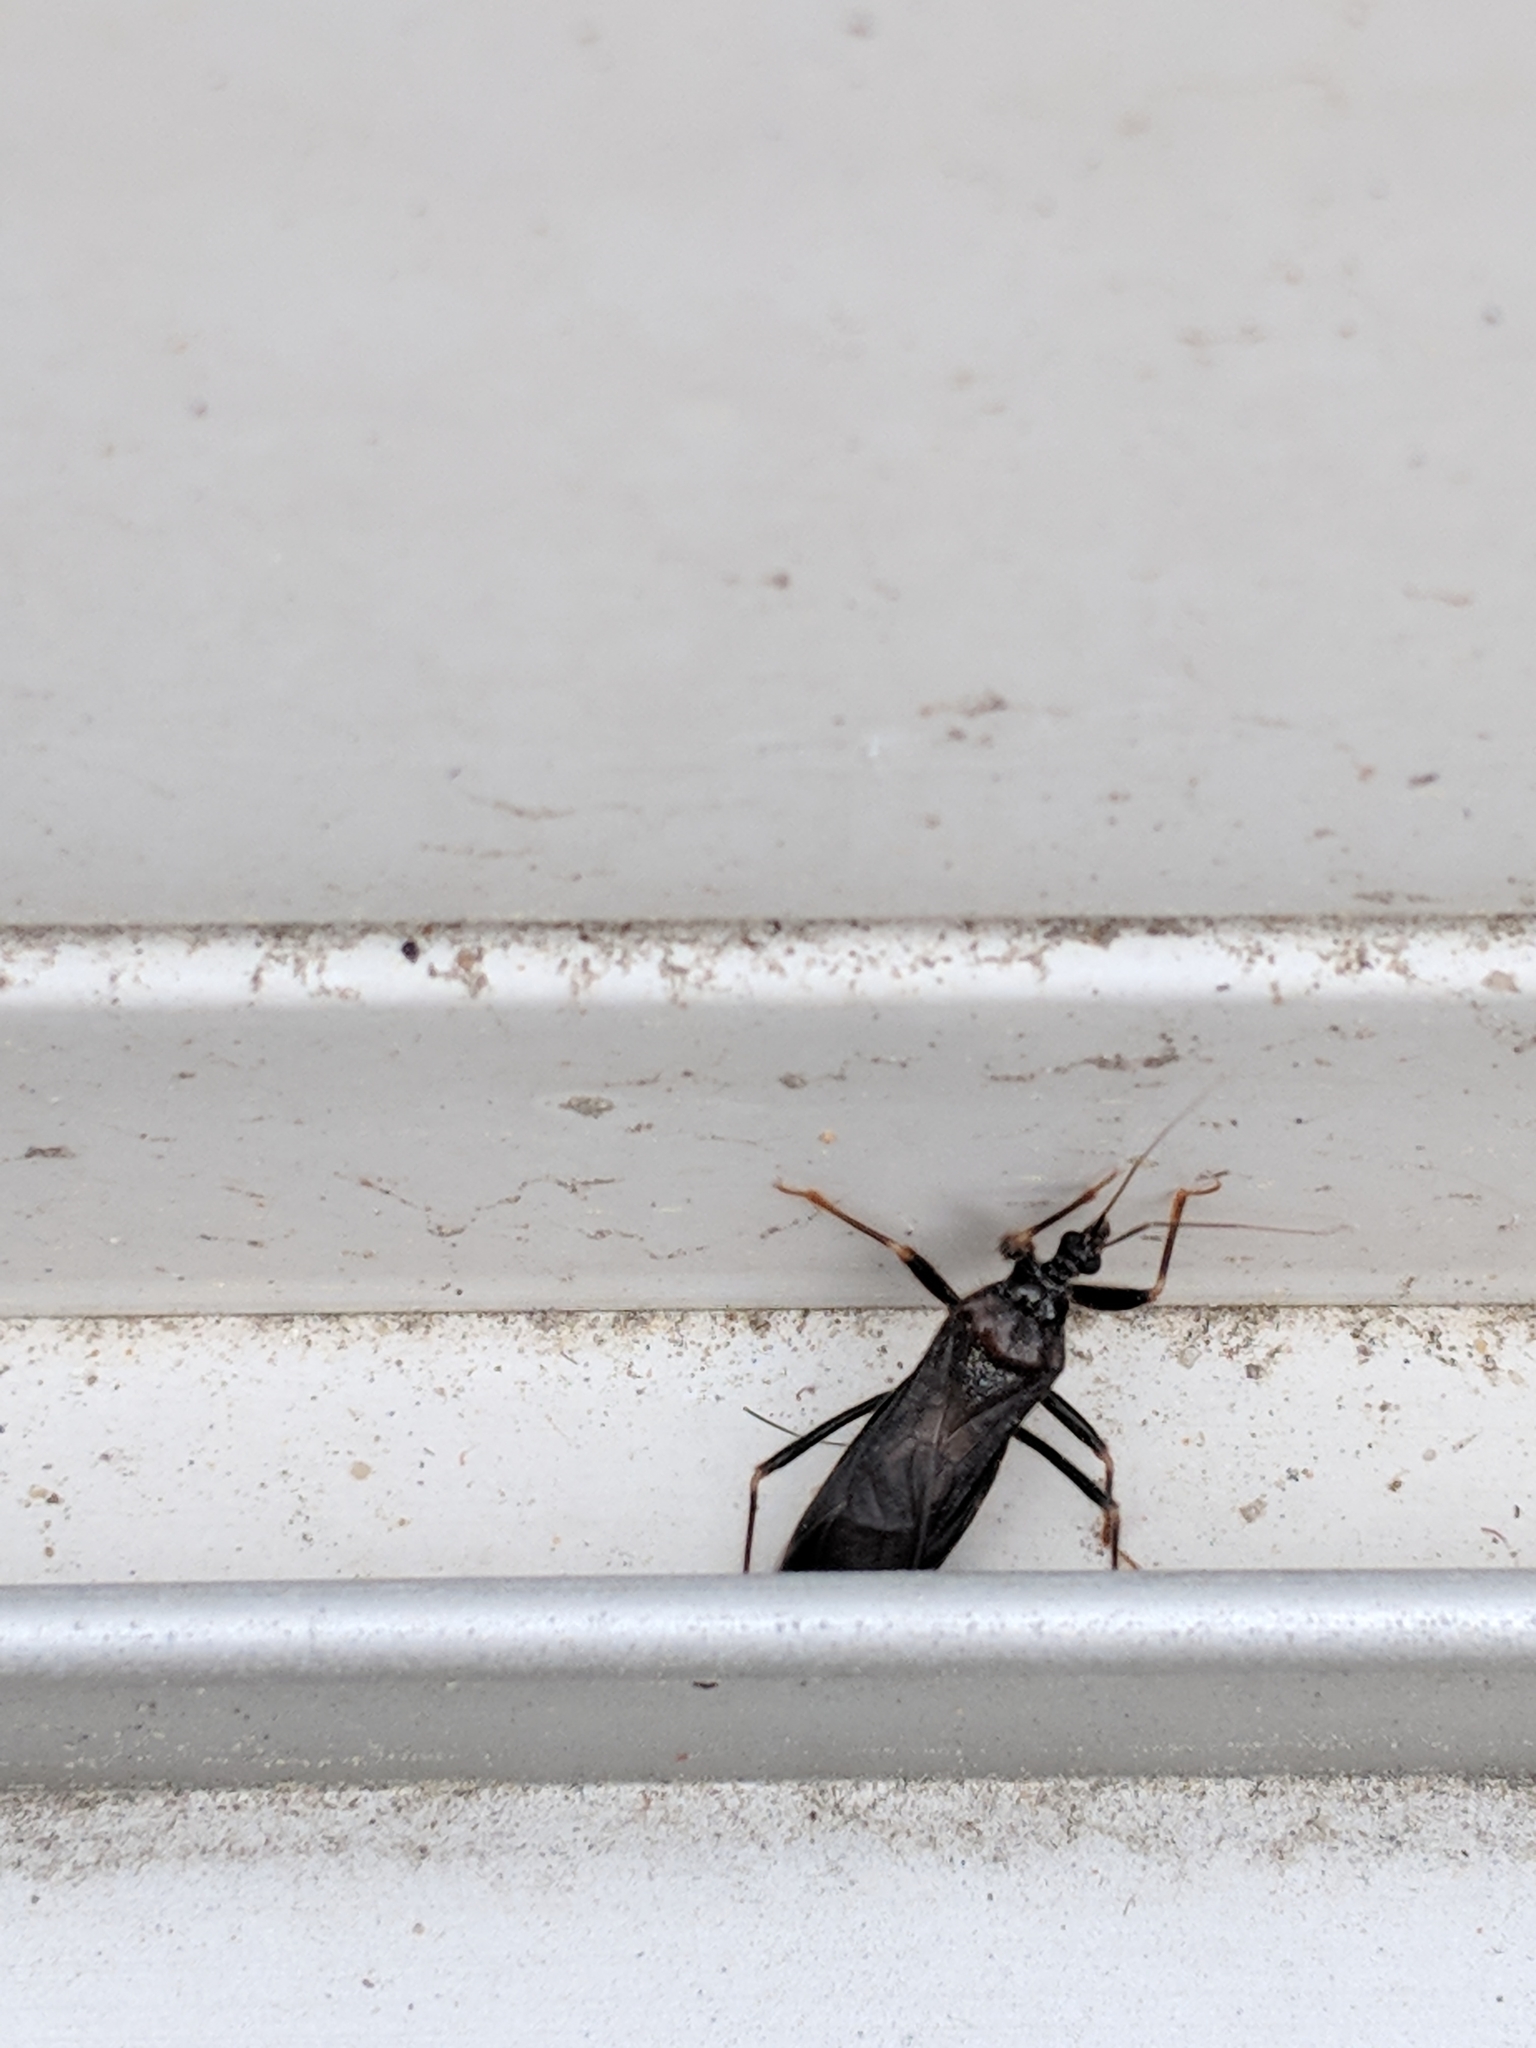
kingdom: Animalia
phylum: Arthropoda
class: Insecta
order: Hemiptera
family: Reduviidae
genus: Reduvius
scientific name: Reduvius personatus
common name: Masked hunter
